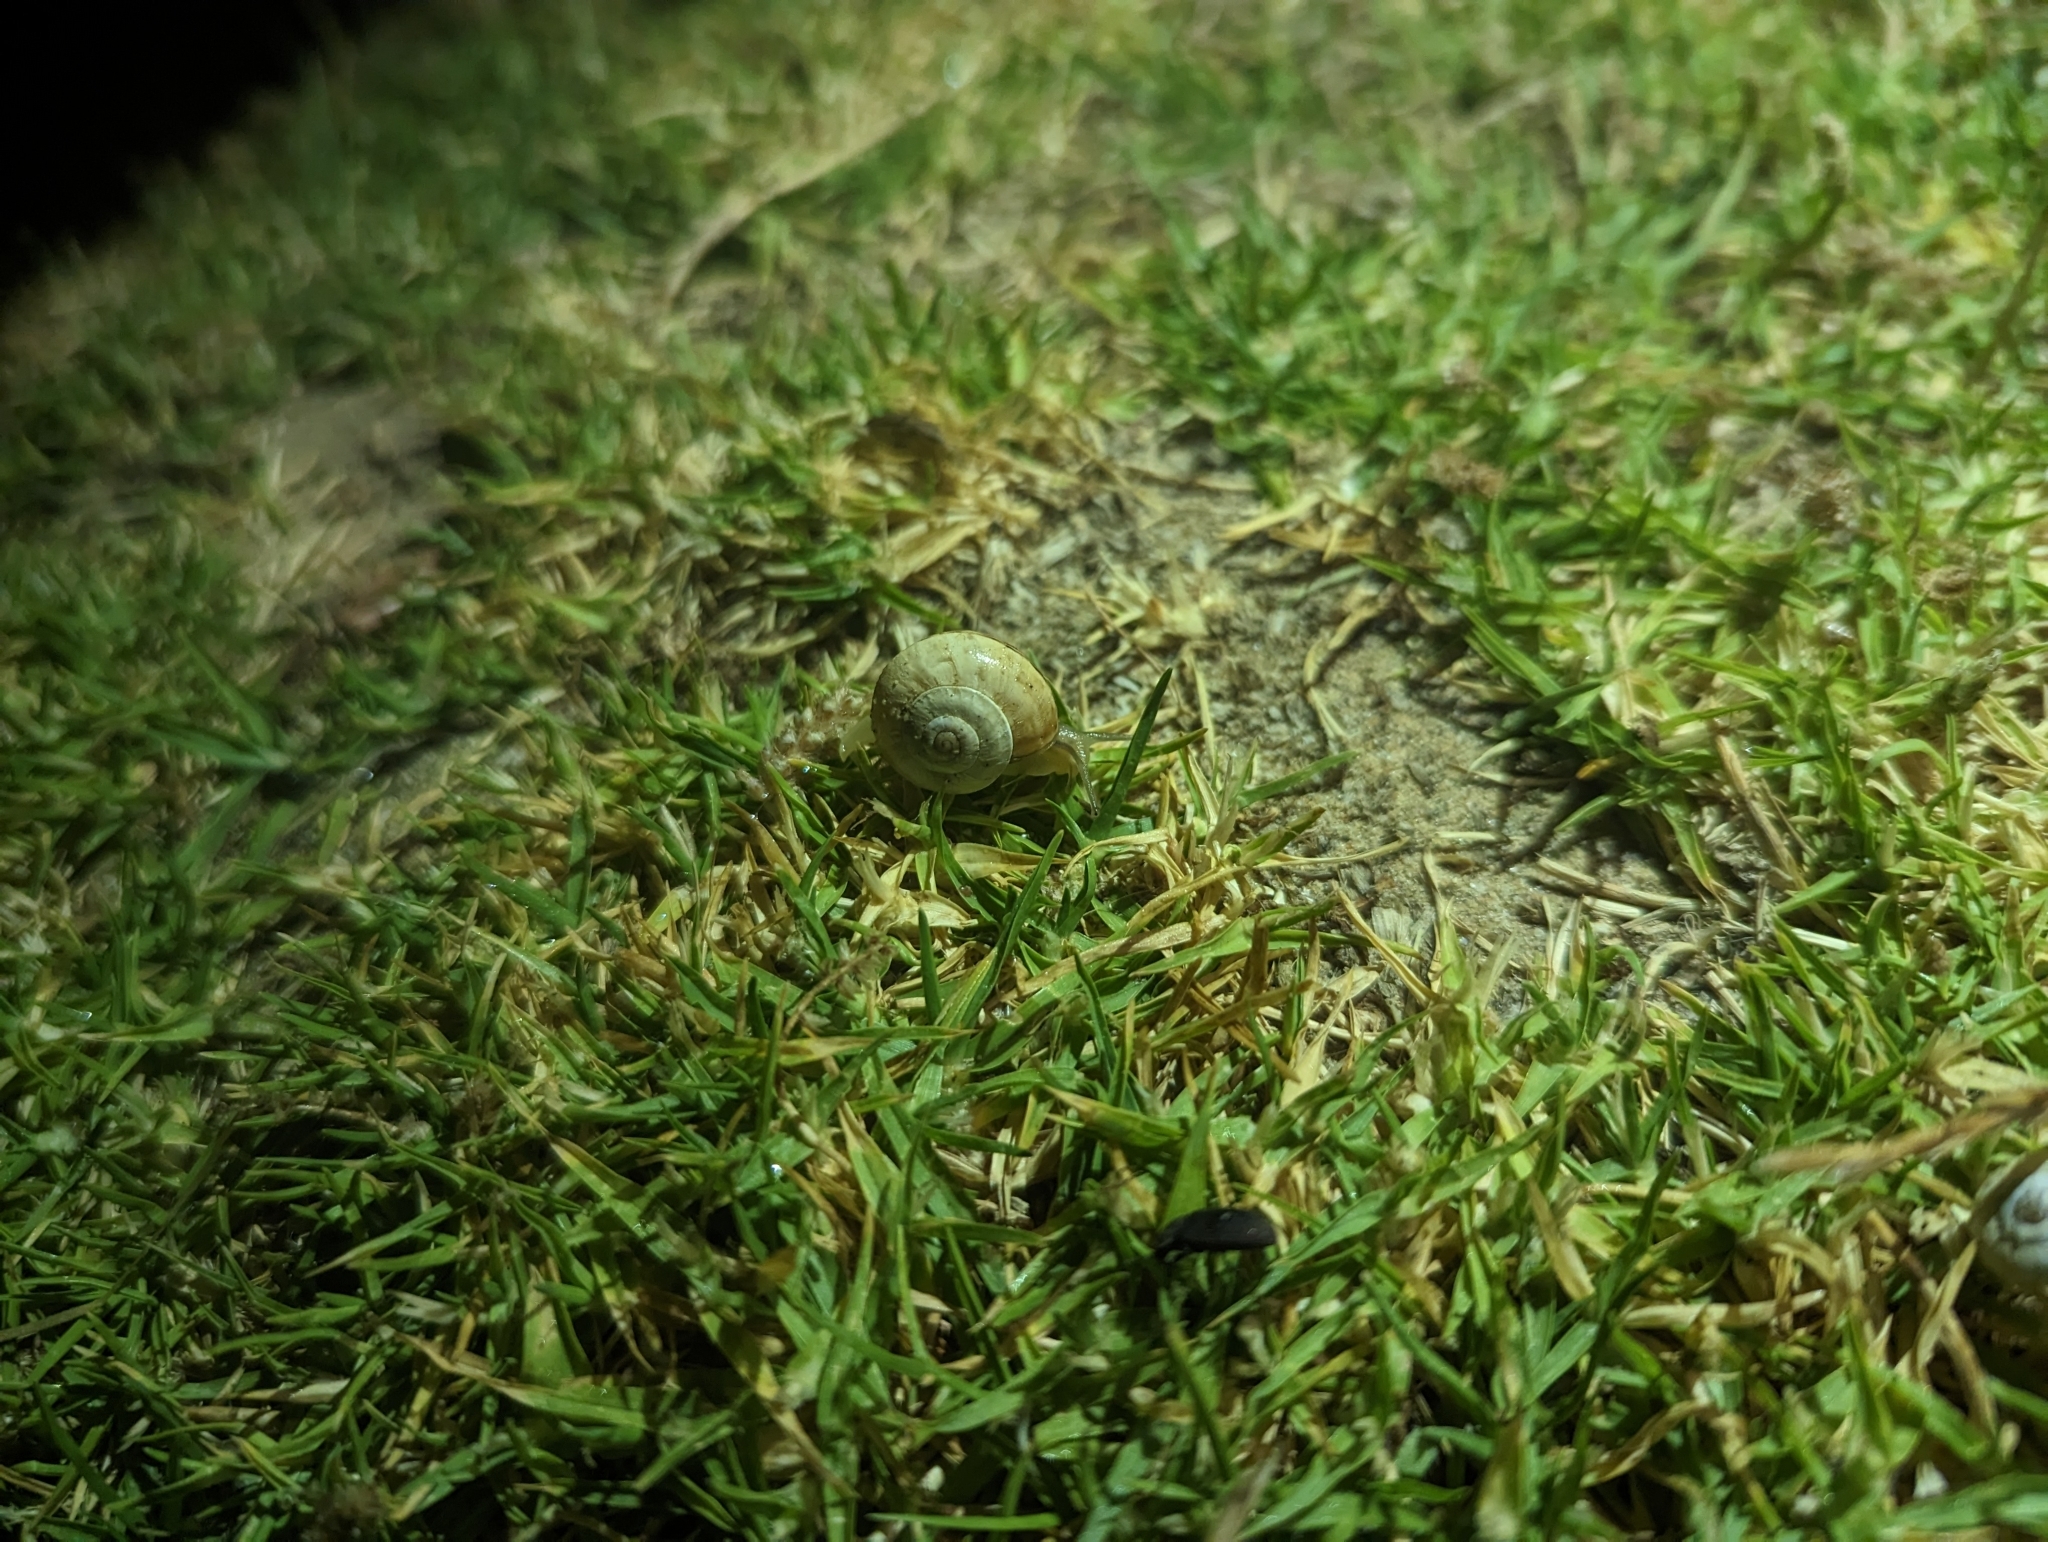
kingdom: Animalia
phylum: Mollusca
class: Gastropoda
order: Stylommatophora
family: Helicidae
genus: Theba
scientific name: Theba pisana
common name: White snail
